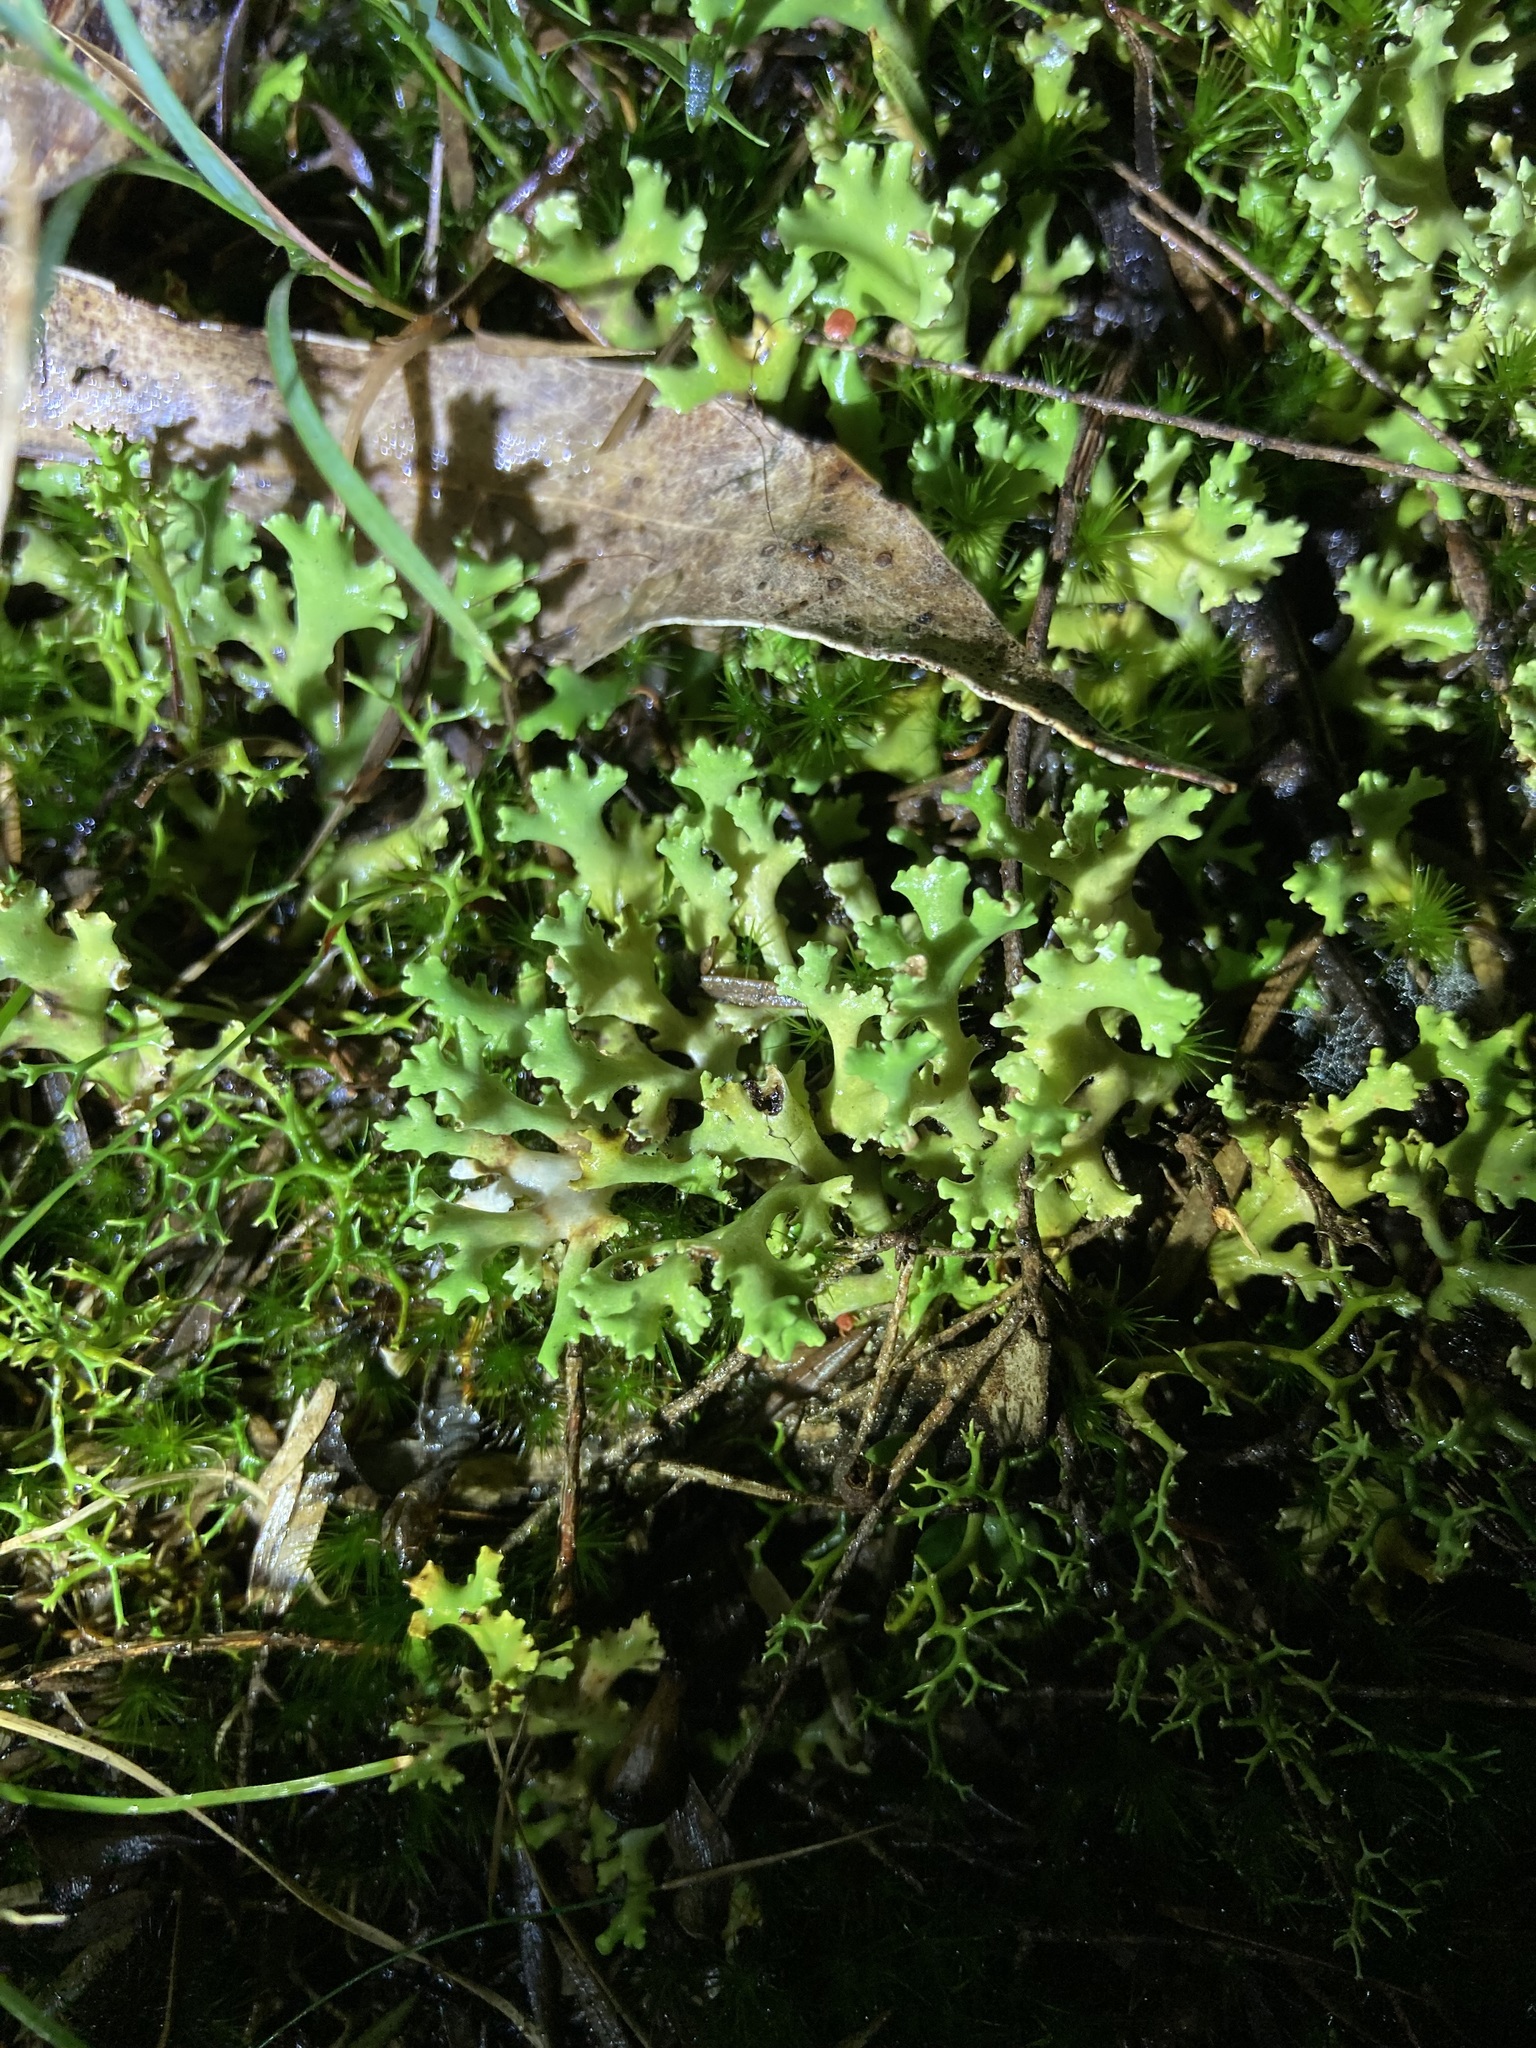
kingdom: Fungi
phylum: Ascomycota
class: Lecanoromycetes
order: Lecanorales
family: Cladoniaceae
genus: Cladia
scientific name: Cladia muelleri
